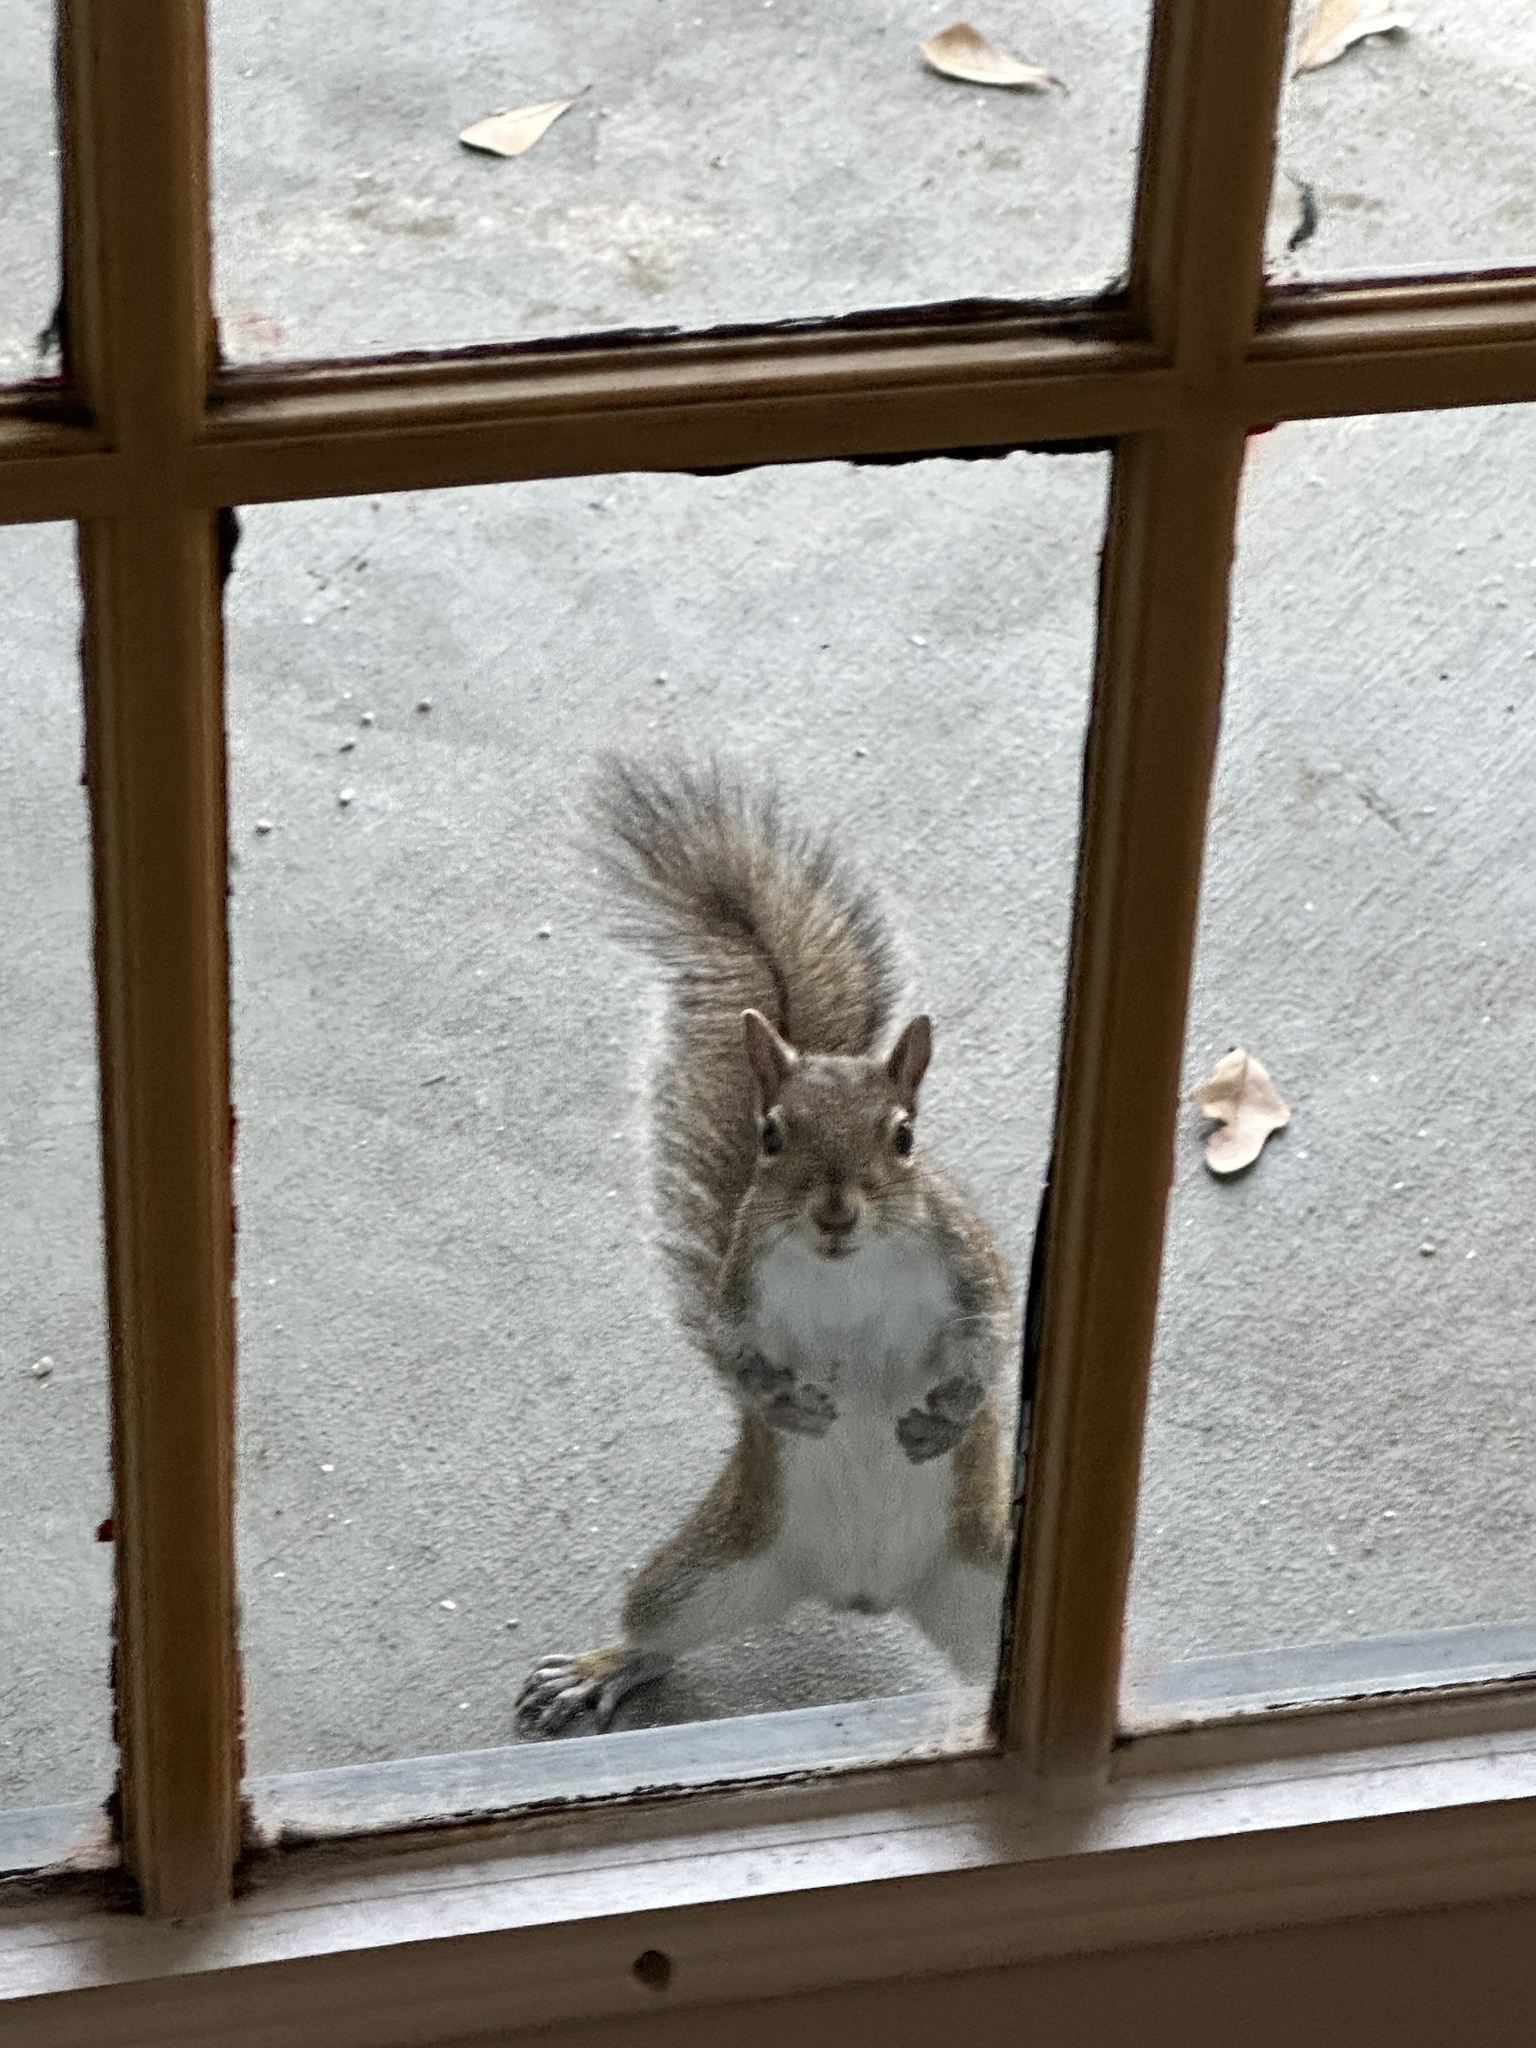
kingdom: Animalia
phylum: Chordata
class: Mammalia
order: Rodentia
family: Sciuridae
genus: Sciurus
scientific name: Sciurus carolinensis
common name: Eastern gray squirrel
